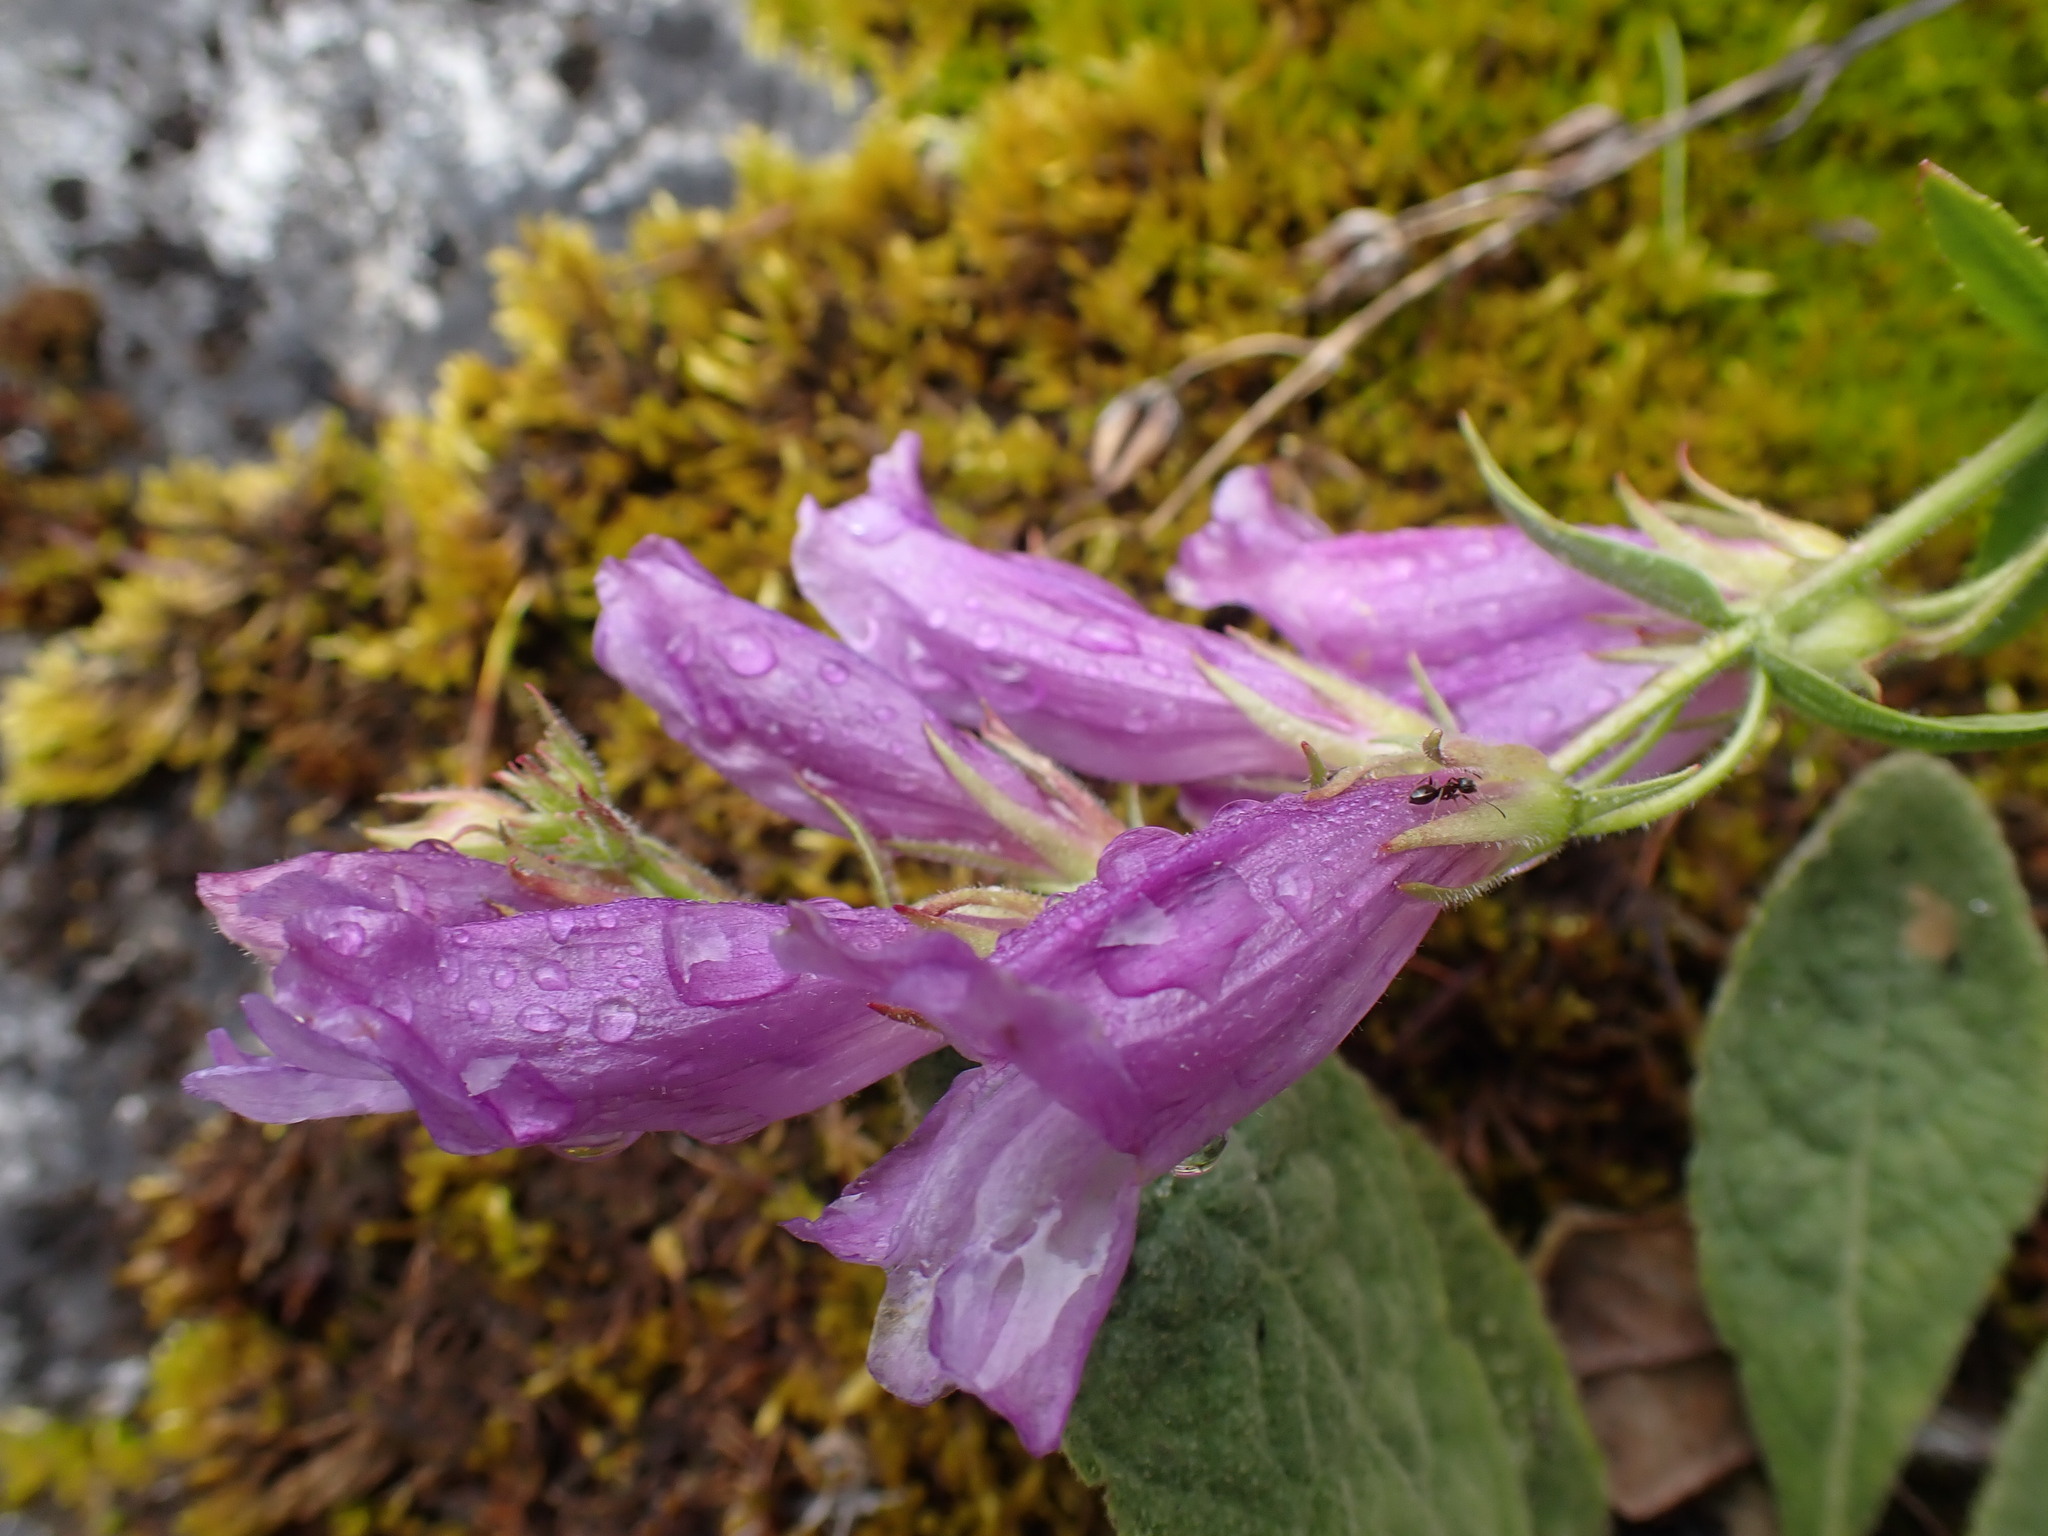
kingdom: Plantae
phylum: Tracheophyta
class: Magnoliopsida
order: Lamiales
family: Plantaginaceae
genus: Penstemon
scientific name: Penstemon fruticosus
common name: Bush penstemon
